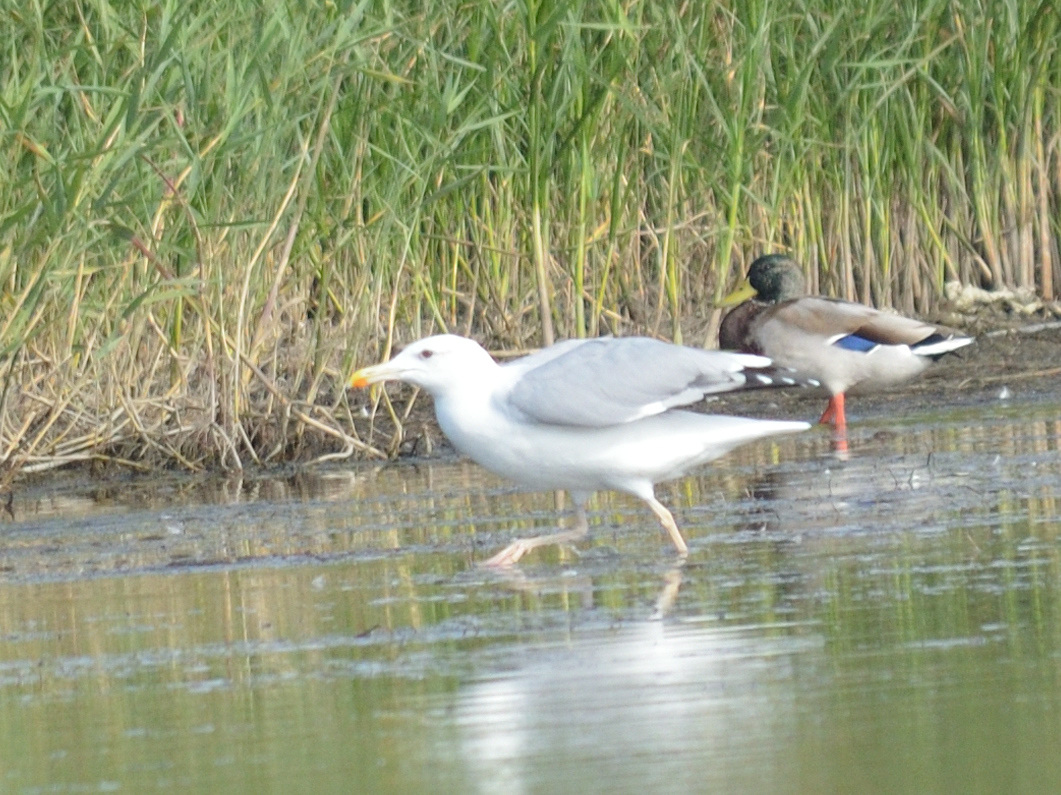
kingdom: Animalia
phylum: Chordata
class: Aves
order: Charadriiformes
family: Laridae
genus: Larus
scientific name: Larus cachinnans
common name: Caspian gull
